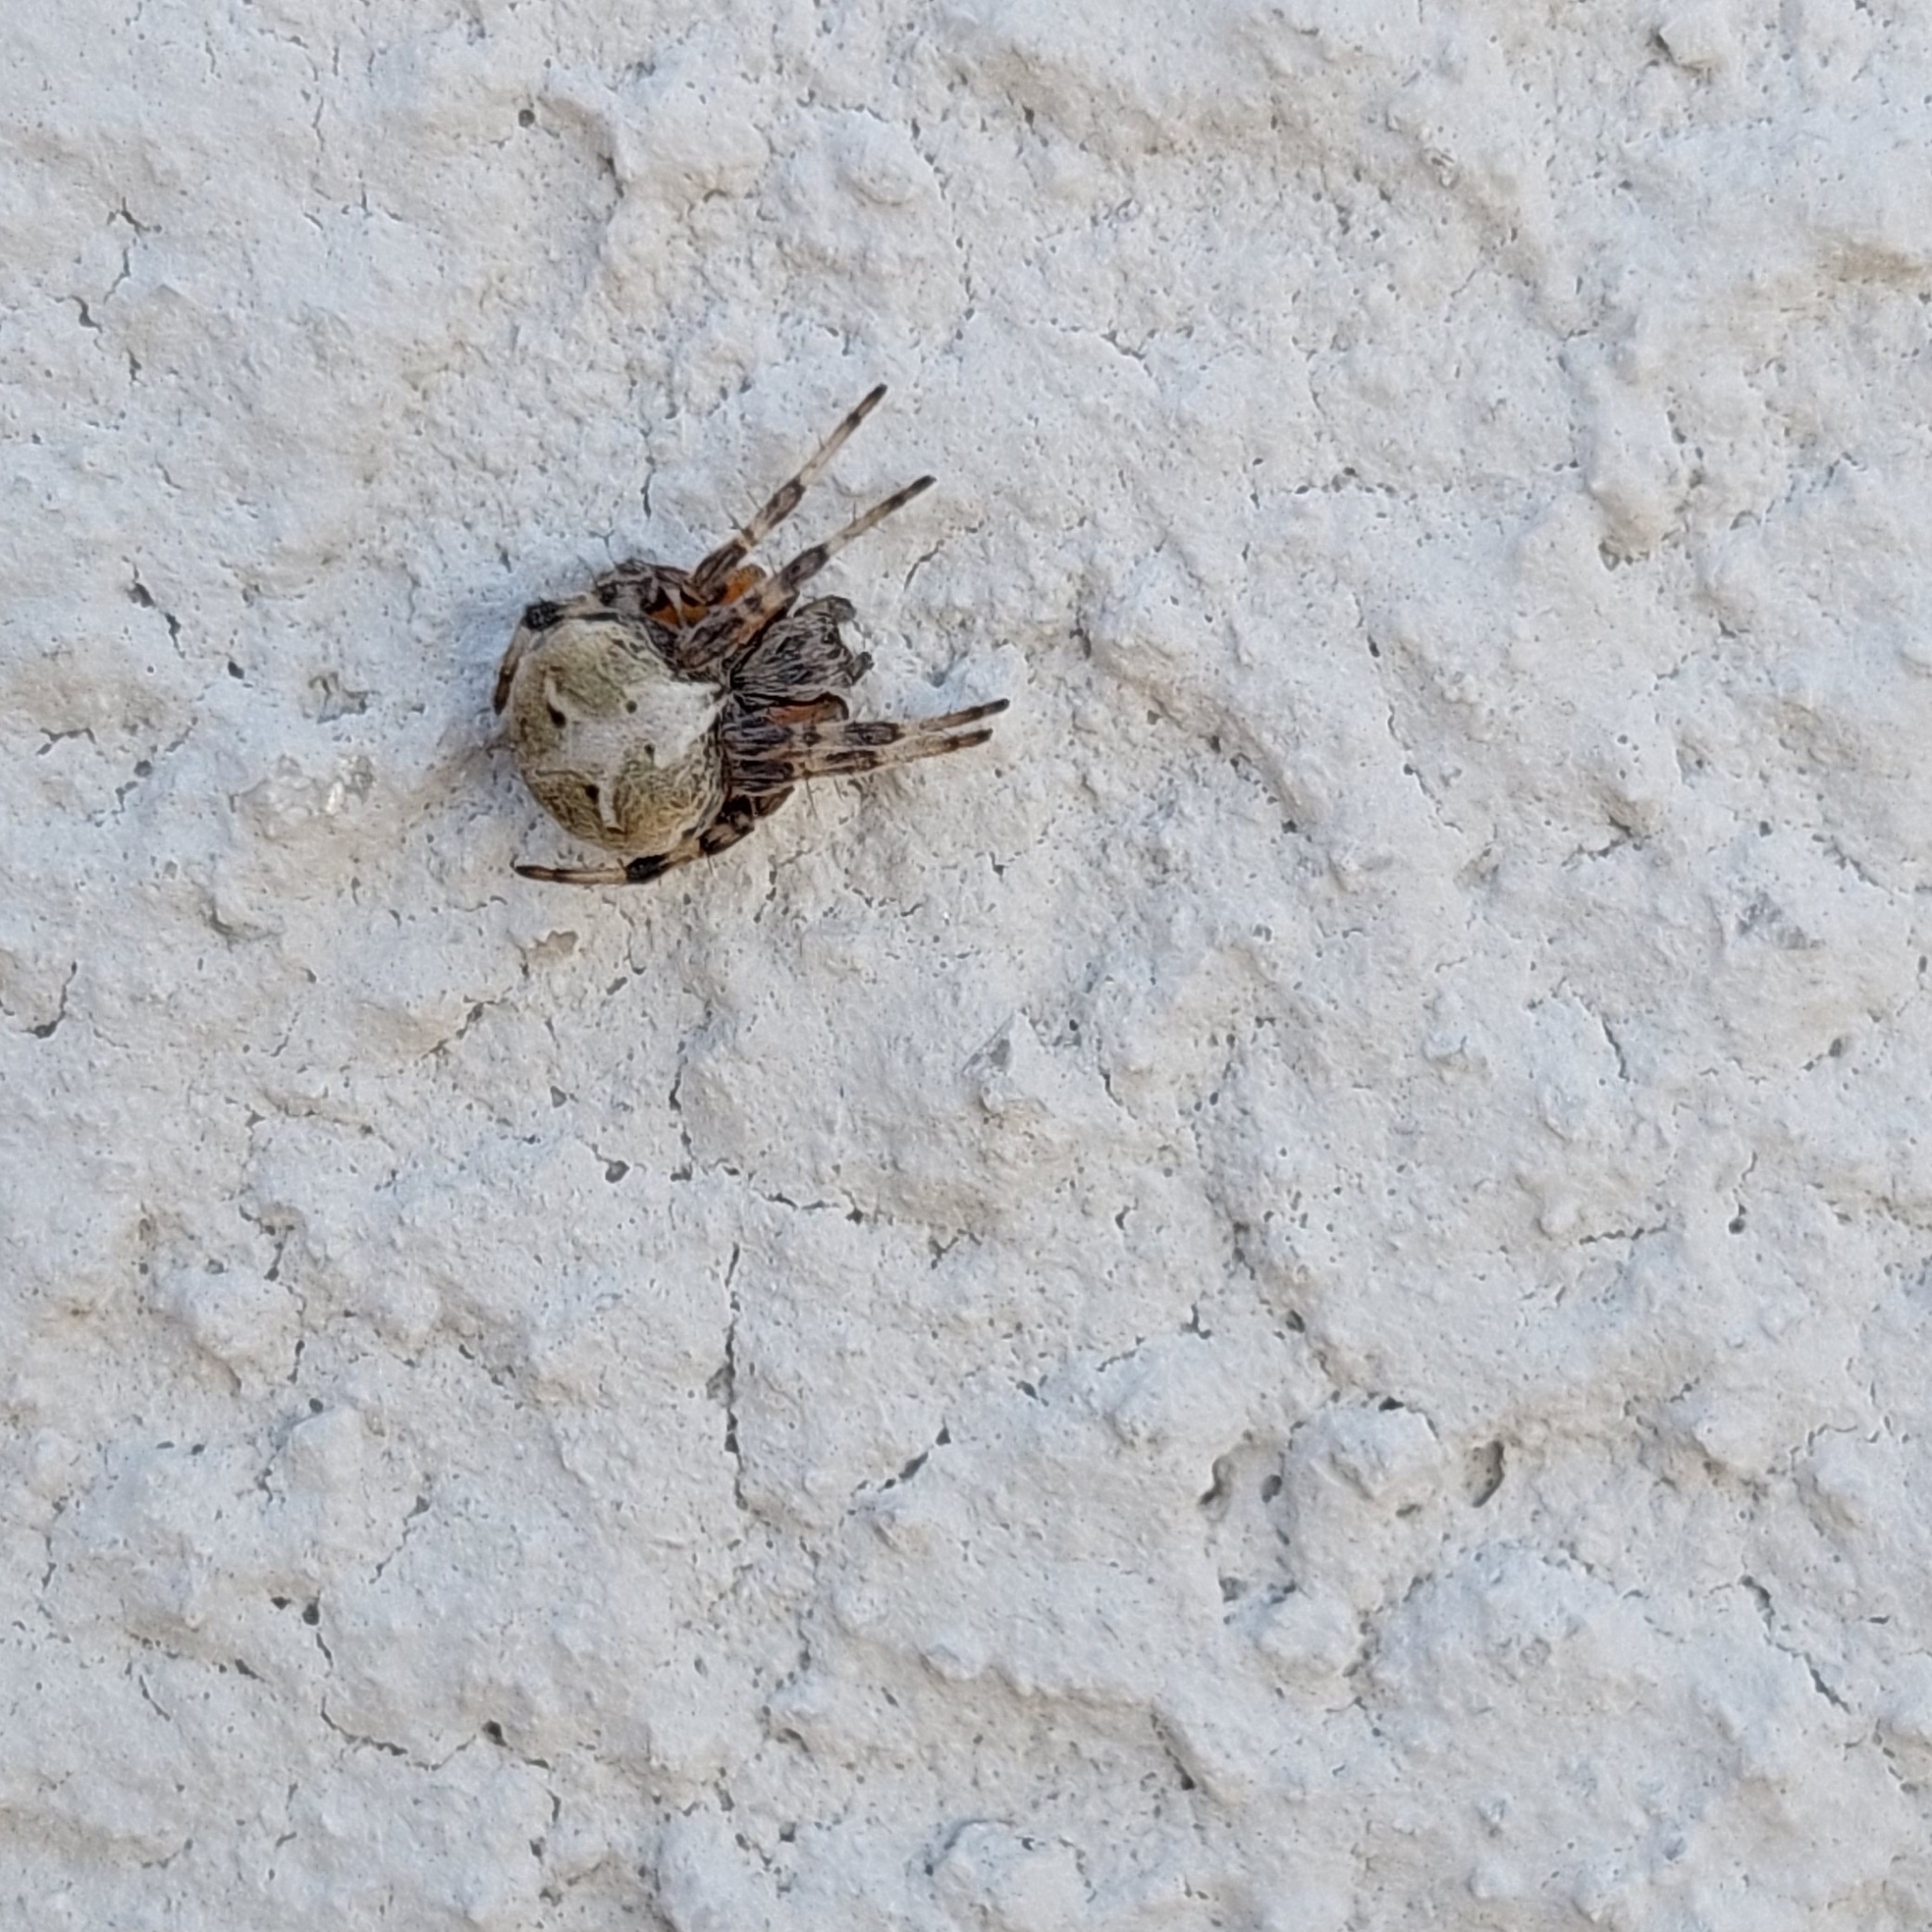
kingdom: Animalia
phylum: Arthropoda
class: Arachnida
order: Araneae
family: Araneidae
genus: Metepeira
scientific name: Metepeira
